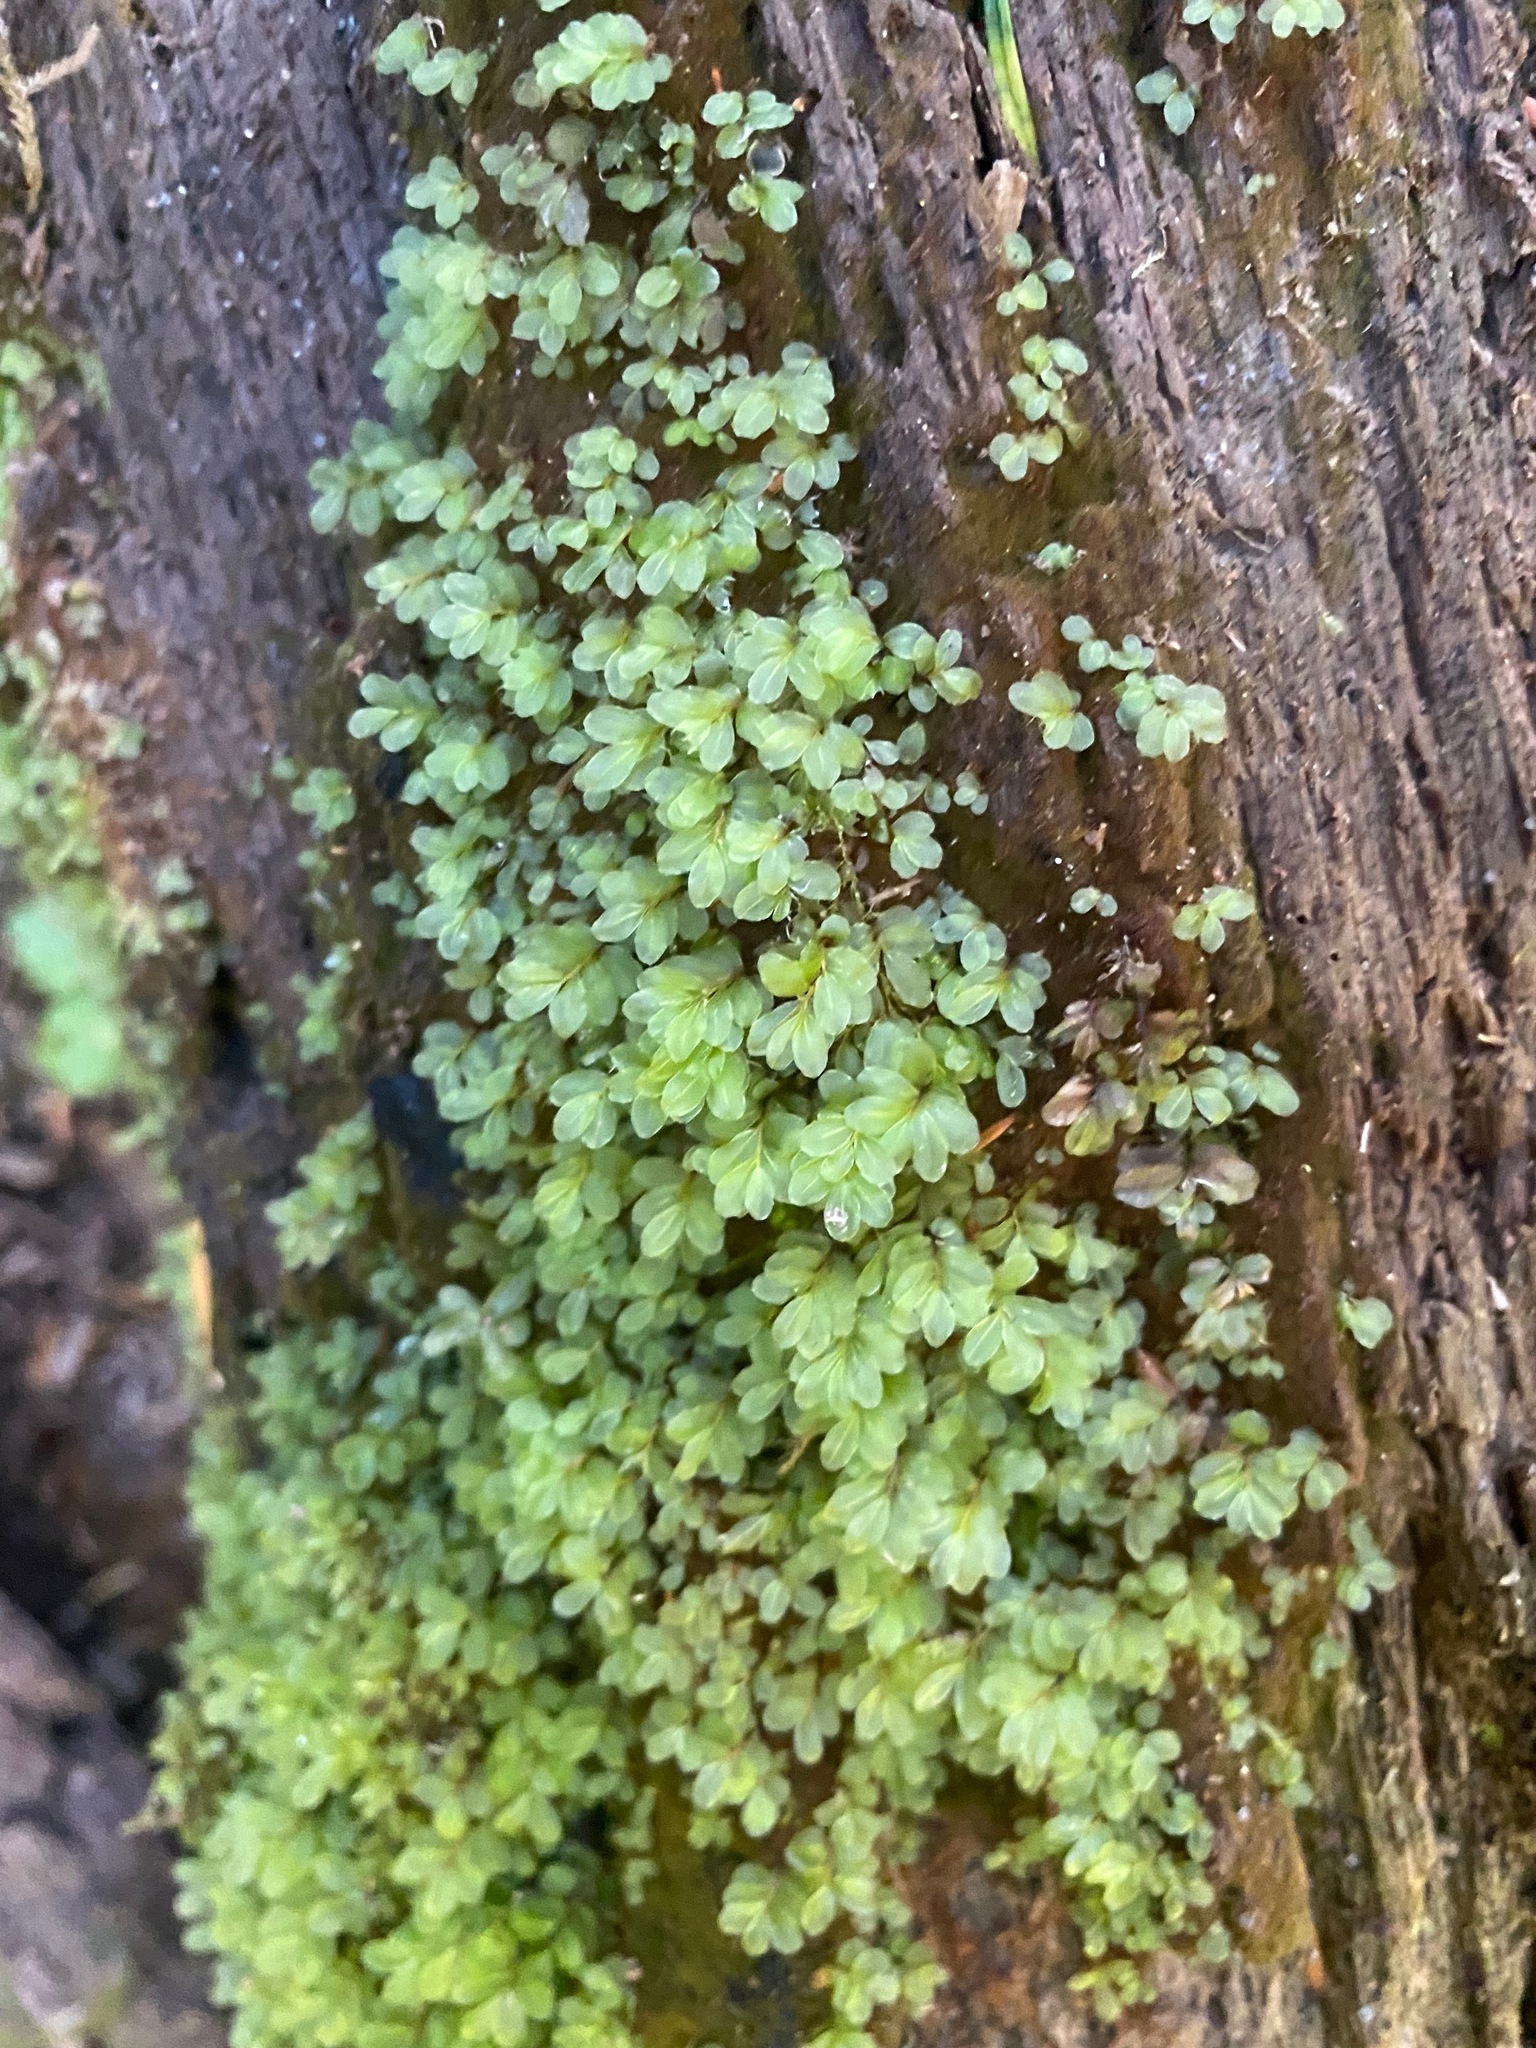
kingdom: Plantae
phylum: Bryophyta
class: Bryopsida
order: Bryales
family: Mniaceae
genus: Rhizomnium
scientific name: Rhizomnium glabrescens
